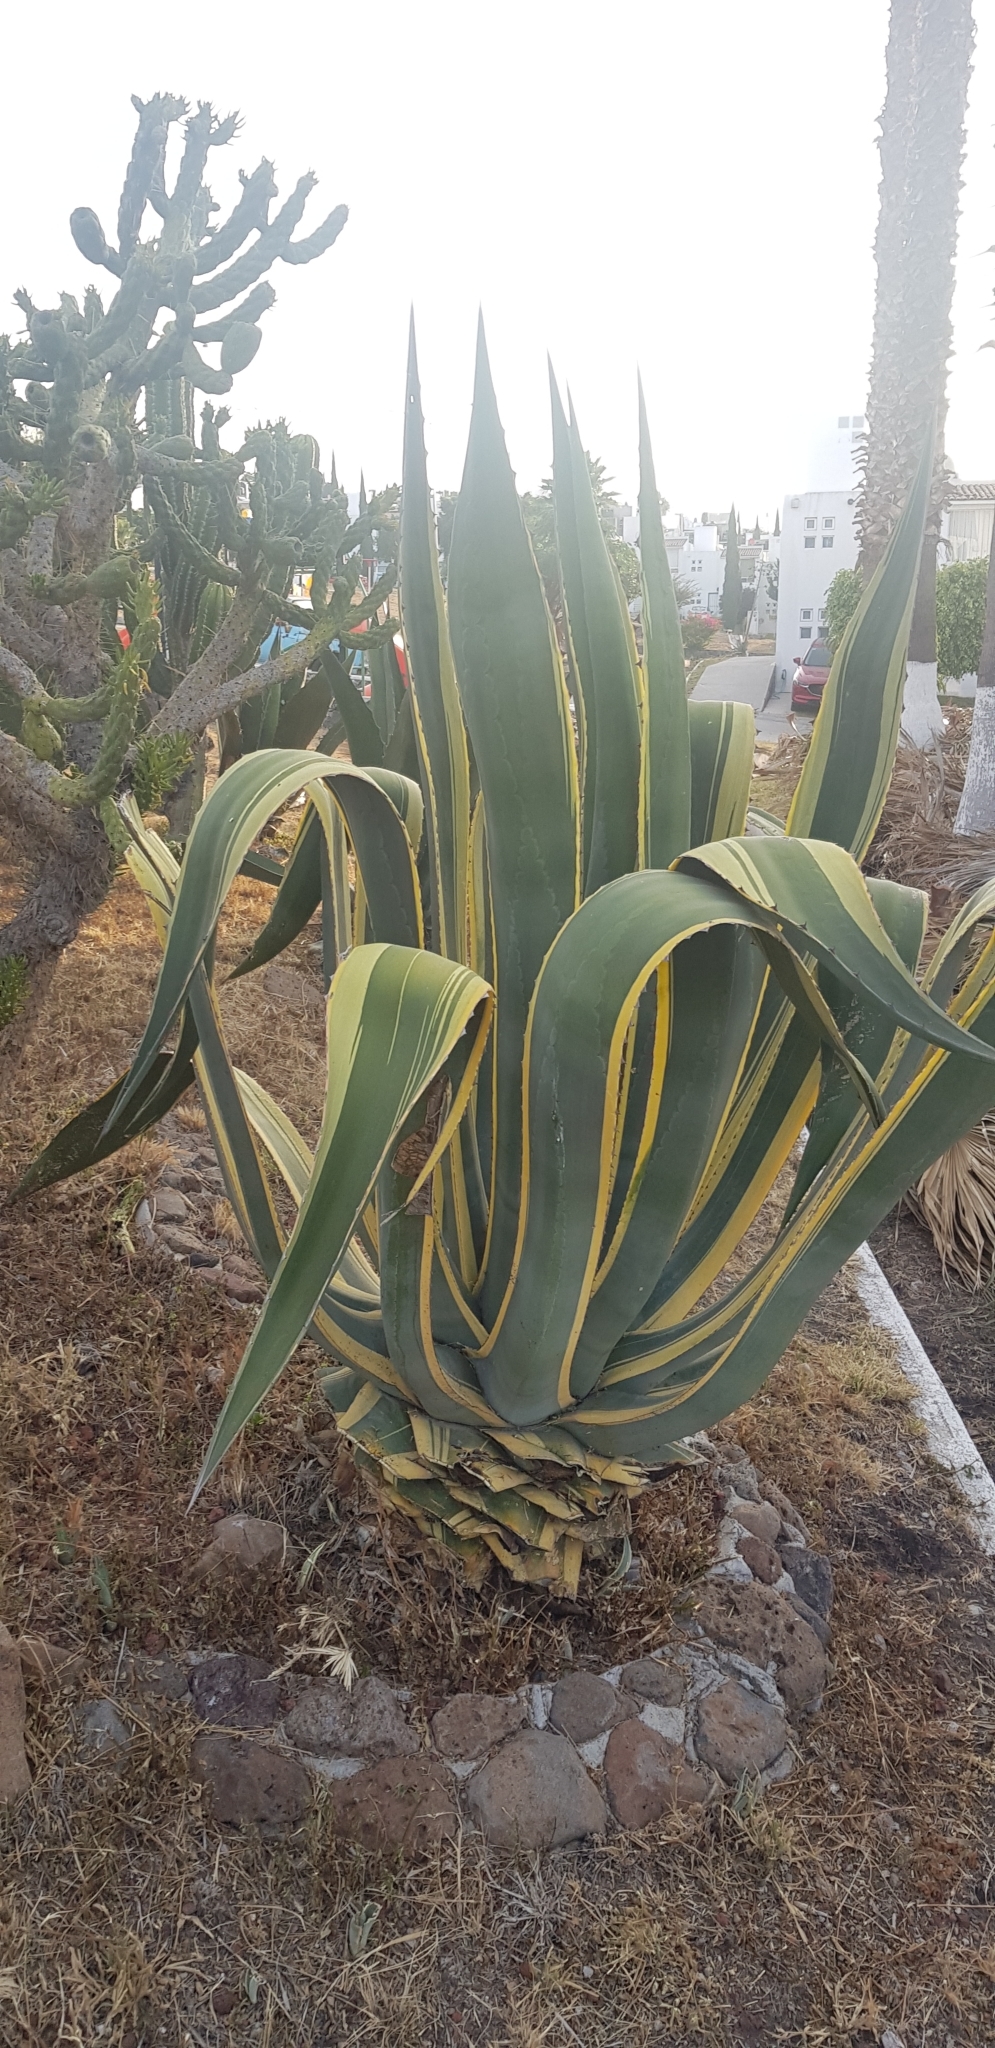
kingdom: Plantae
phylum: Tracheophyta
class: Liliopsida
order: Asparagales
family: Asparagaceae
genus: Agave
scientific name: Agave americana
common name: Centuryplant
